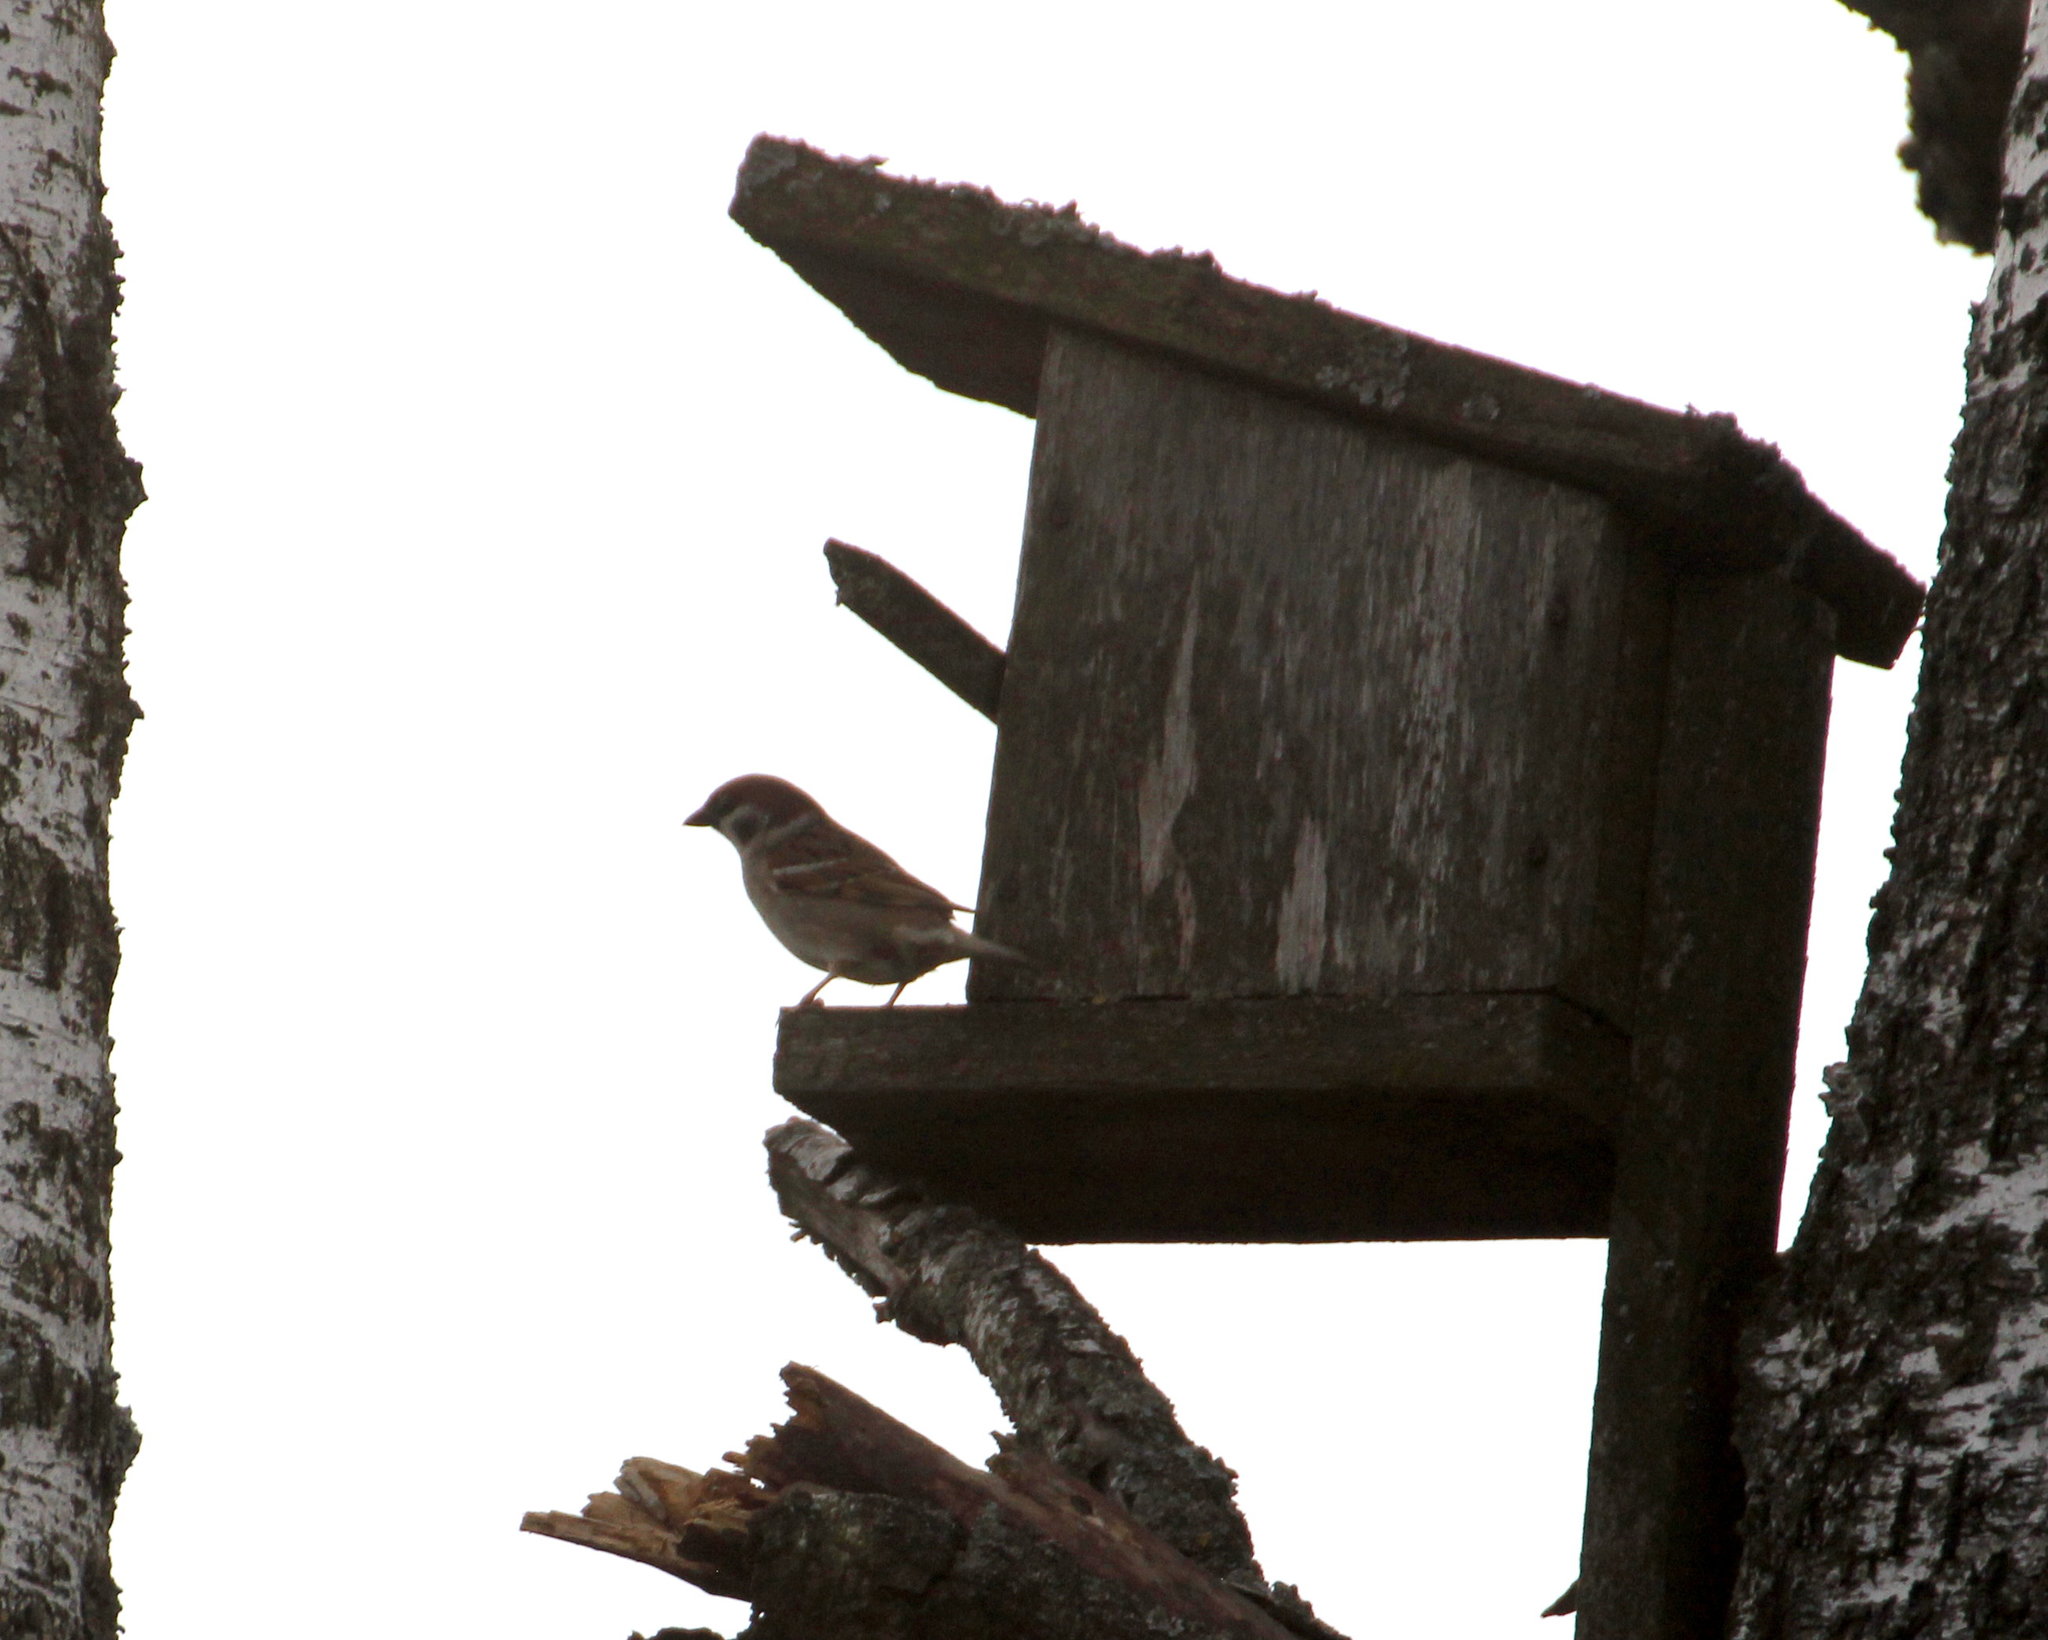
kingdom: Animalia
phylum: Chordata
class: Aves
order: Passeriformes
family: Passeridae
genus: Passer
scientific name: Passer montanus
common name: Eurasian tree sparrow
